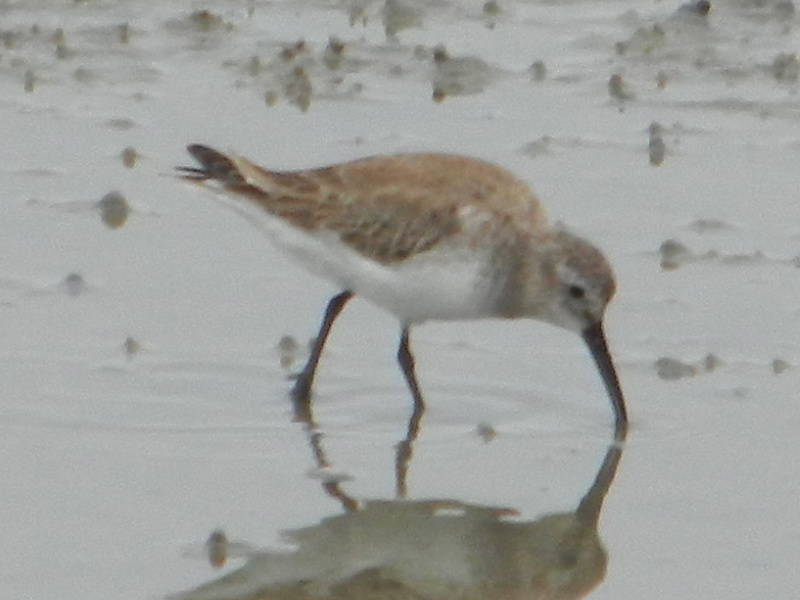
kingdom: Animalia
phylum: Chordata
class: Aves
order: Charadriiformes
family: Scolopacidae
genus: Calidris
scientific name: Calidris alpina
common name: Dunlin
